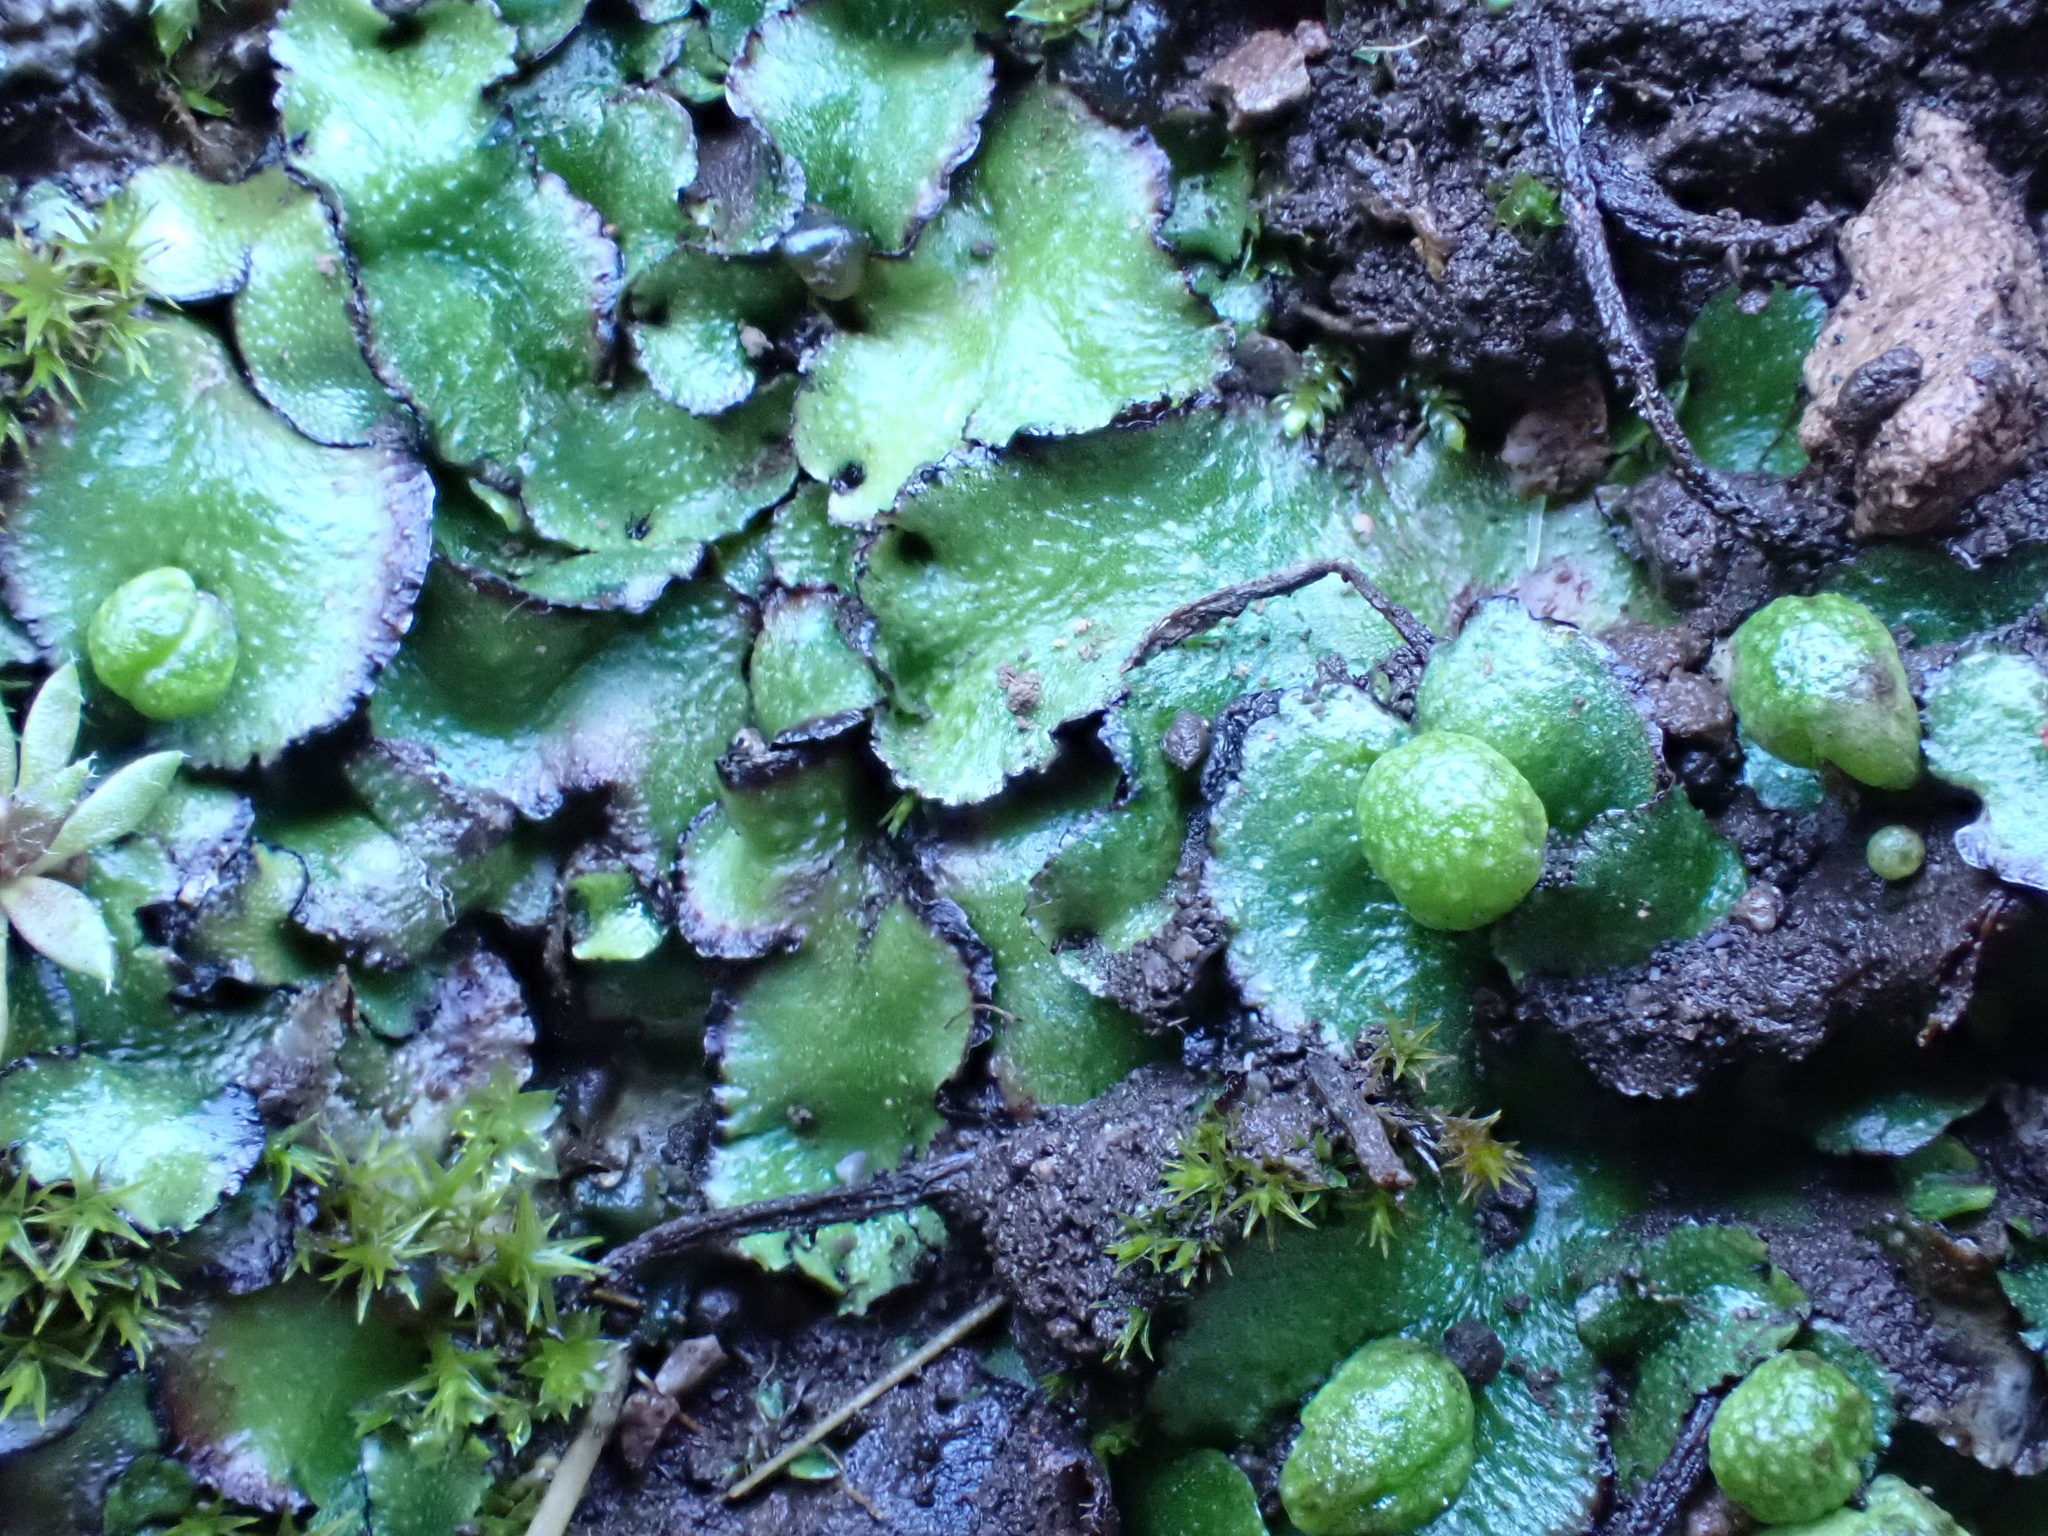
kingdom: Plantae
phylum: Marchantiophyta
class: Marchantiopsida
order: Marchantiales
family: Aytoniaceae
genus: Reboulia
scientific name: Reboulia hemisphaerica
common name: Purple-margined liverwort
